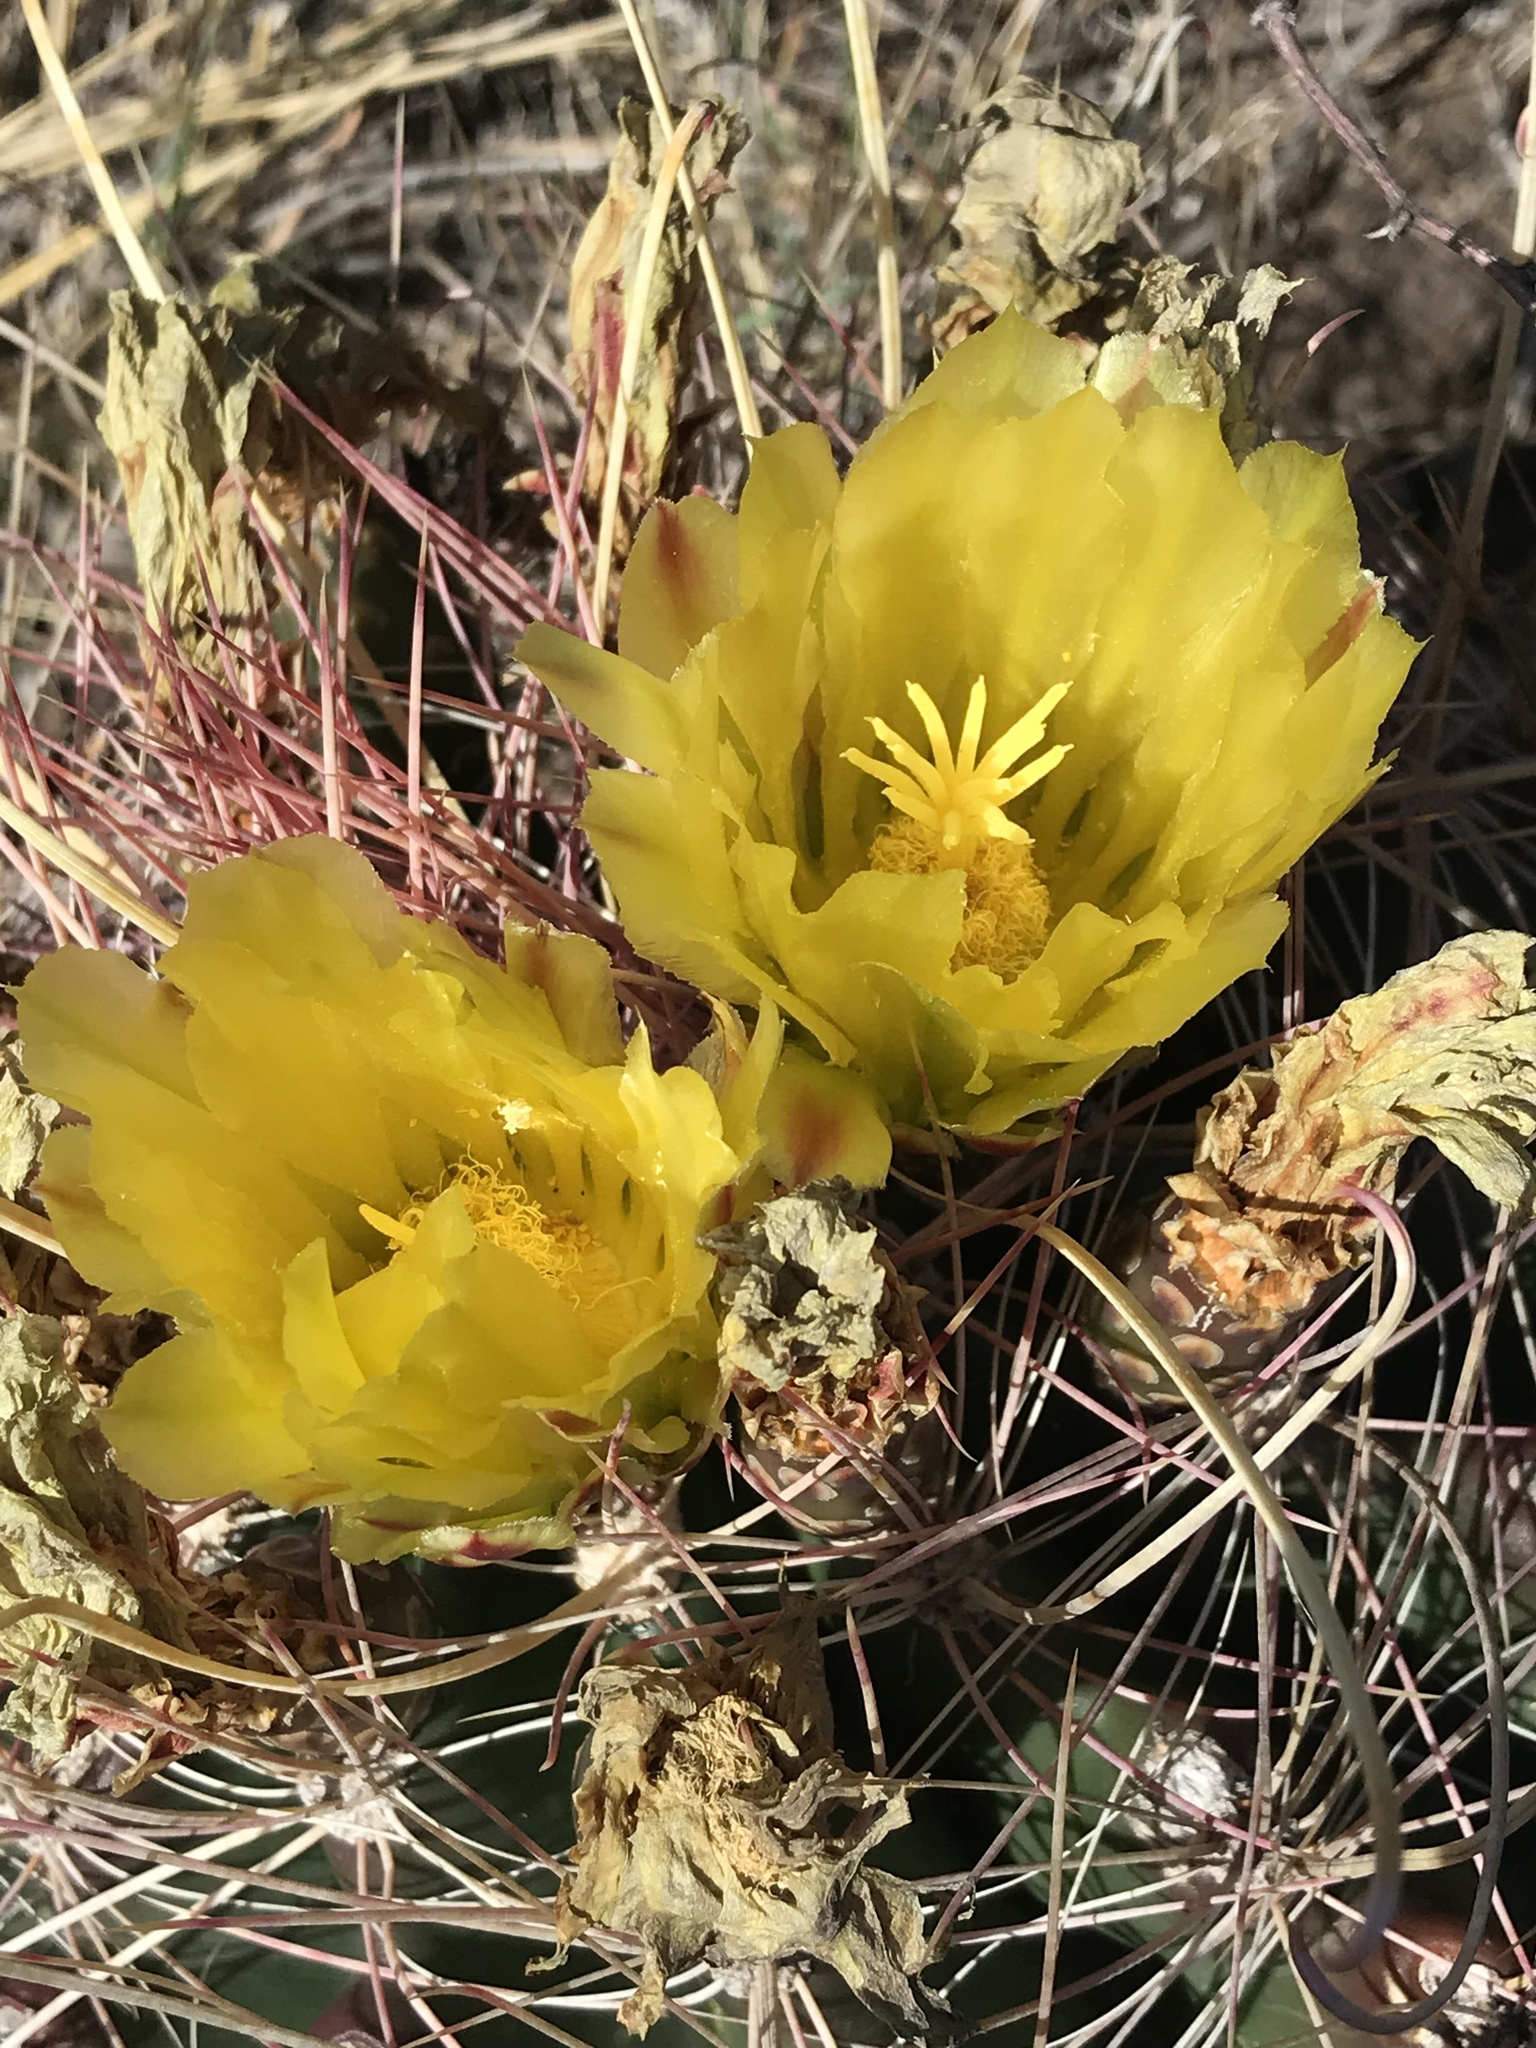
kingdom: Plantae
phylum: Tracheophyta
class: Magnoliopsida
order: Caryophyllales
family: Cactaceae
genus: Bisnaga
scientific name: Bisnaga hamatacantha
